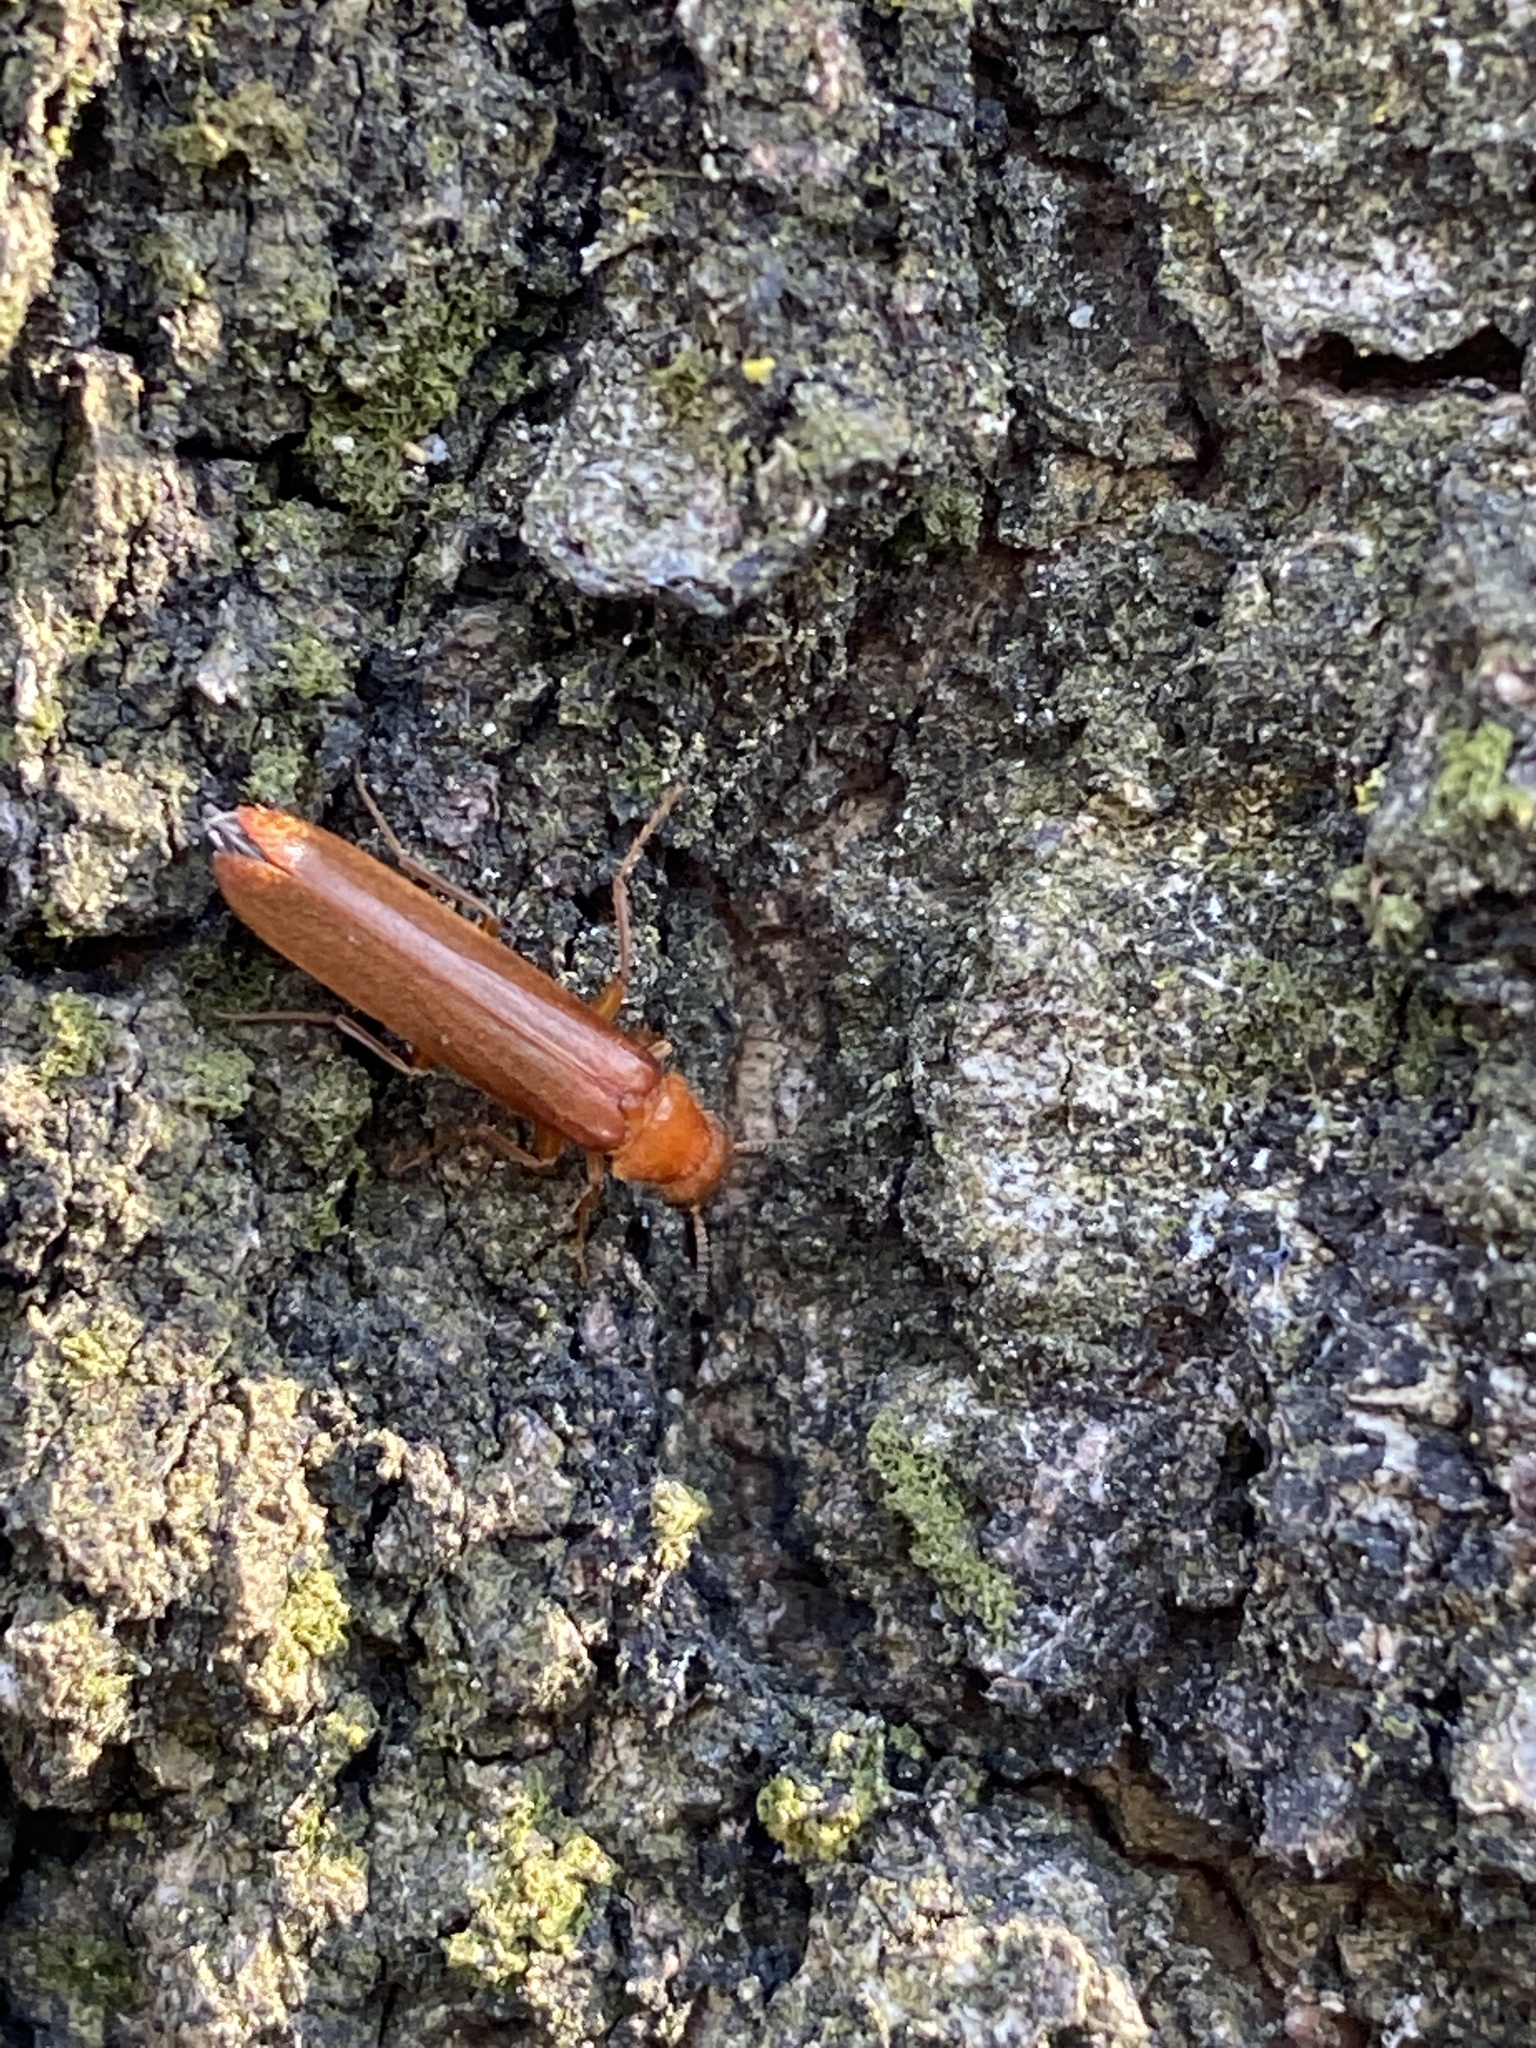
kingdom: Animalia
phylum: Arthropoda
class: Insecta
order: Coleoptera
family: Lymexylidae
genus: Hylecoetus
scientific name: Hylecoetus dermestoides
